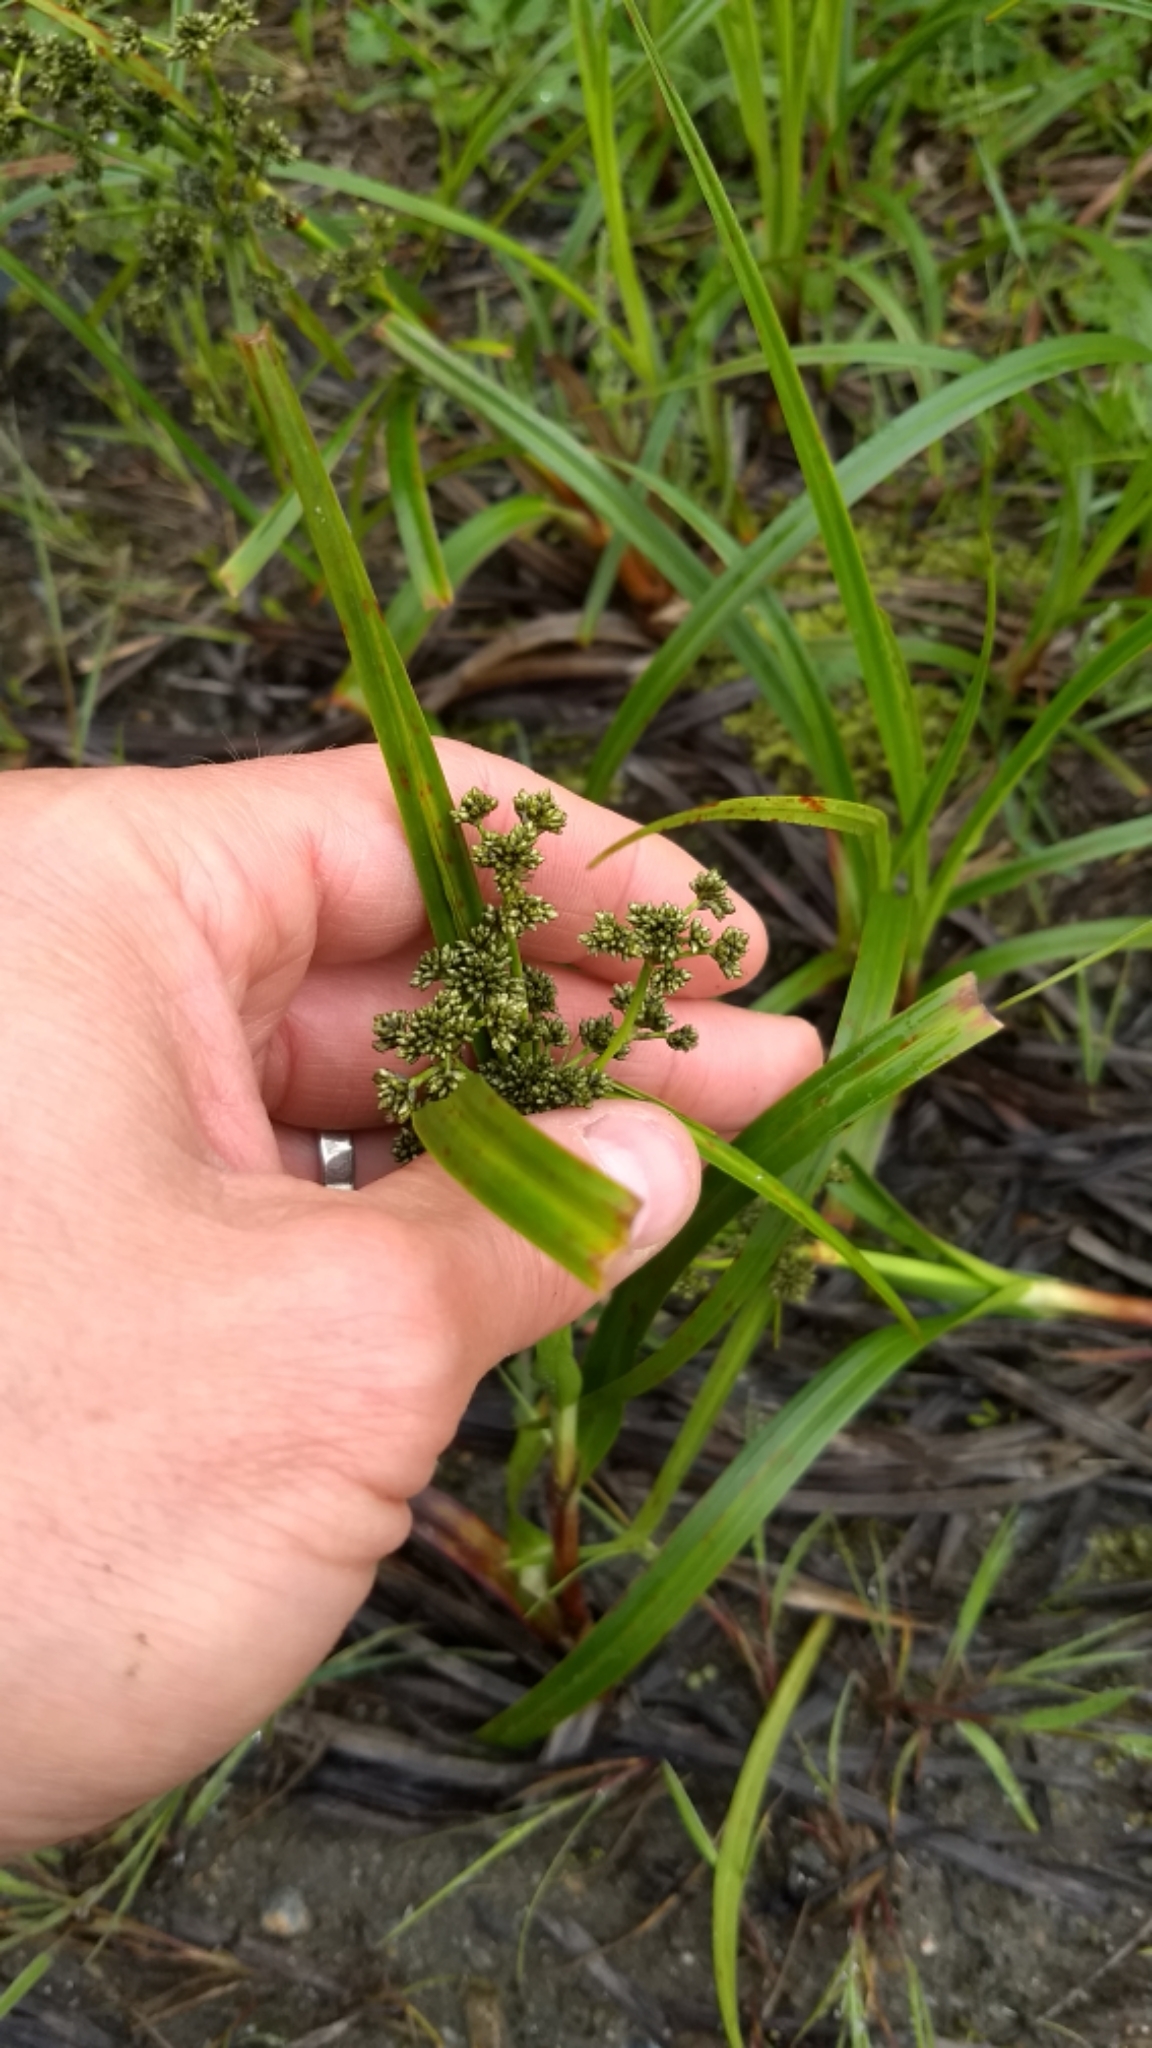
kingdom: Plantae
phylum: Tracheophyta
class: Liliopsida
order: Poales
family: Cyperaceae
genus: Scirpus
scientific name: Scirpus microcarpus
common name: Panicled bulrush
